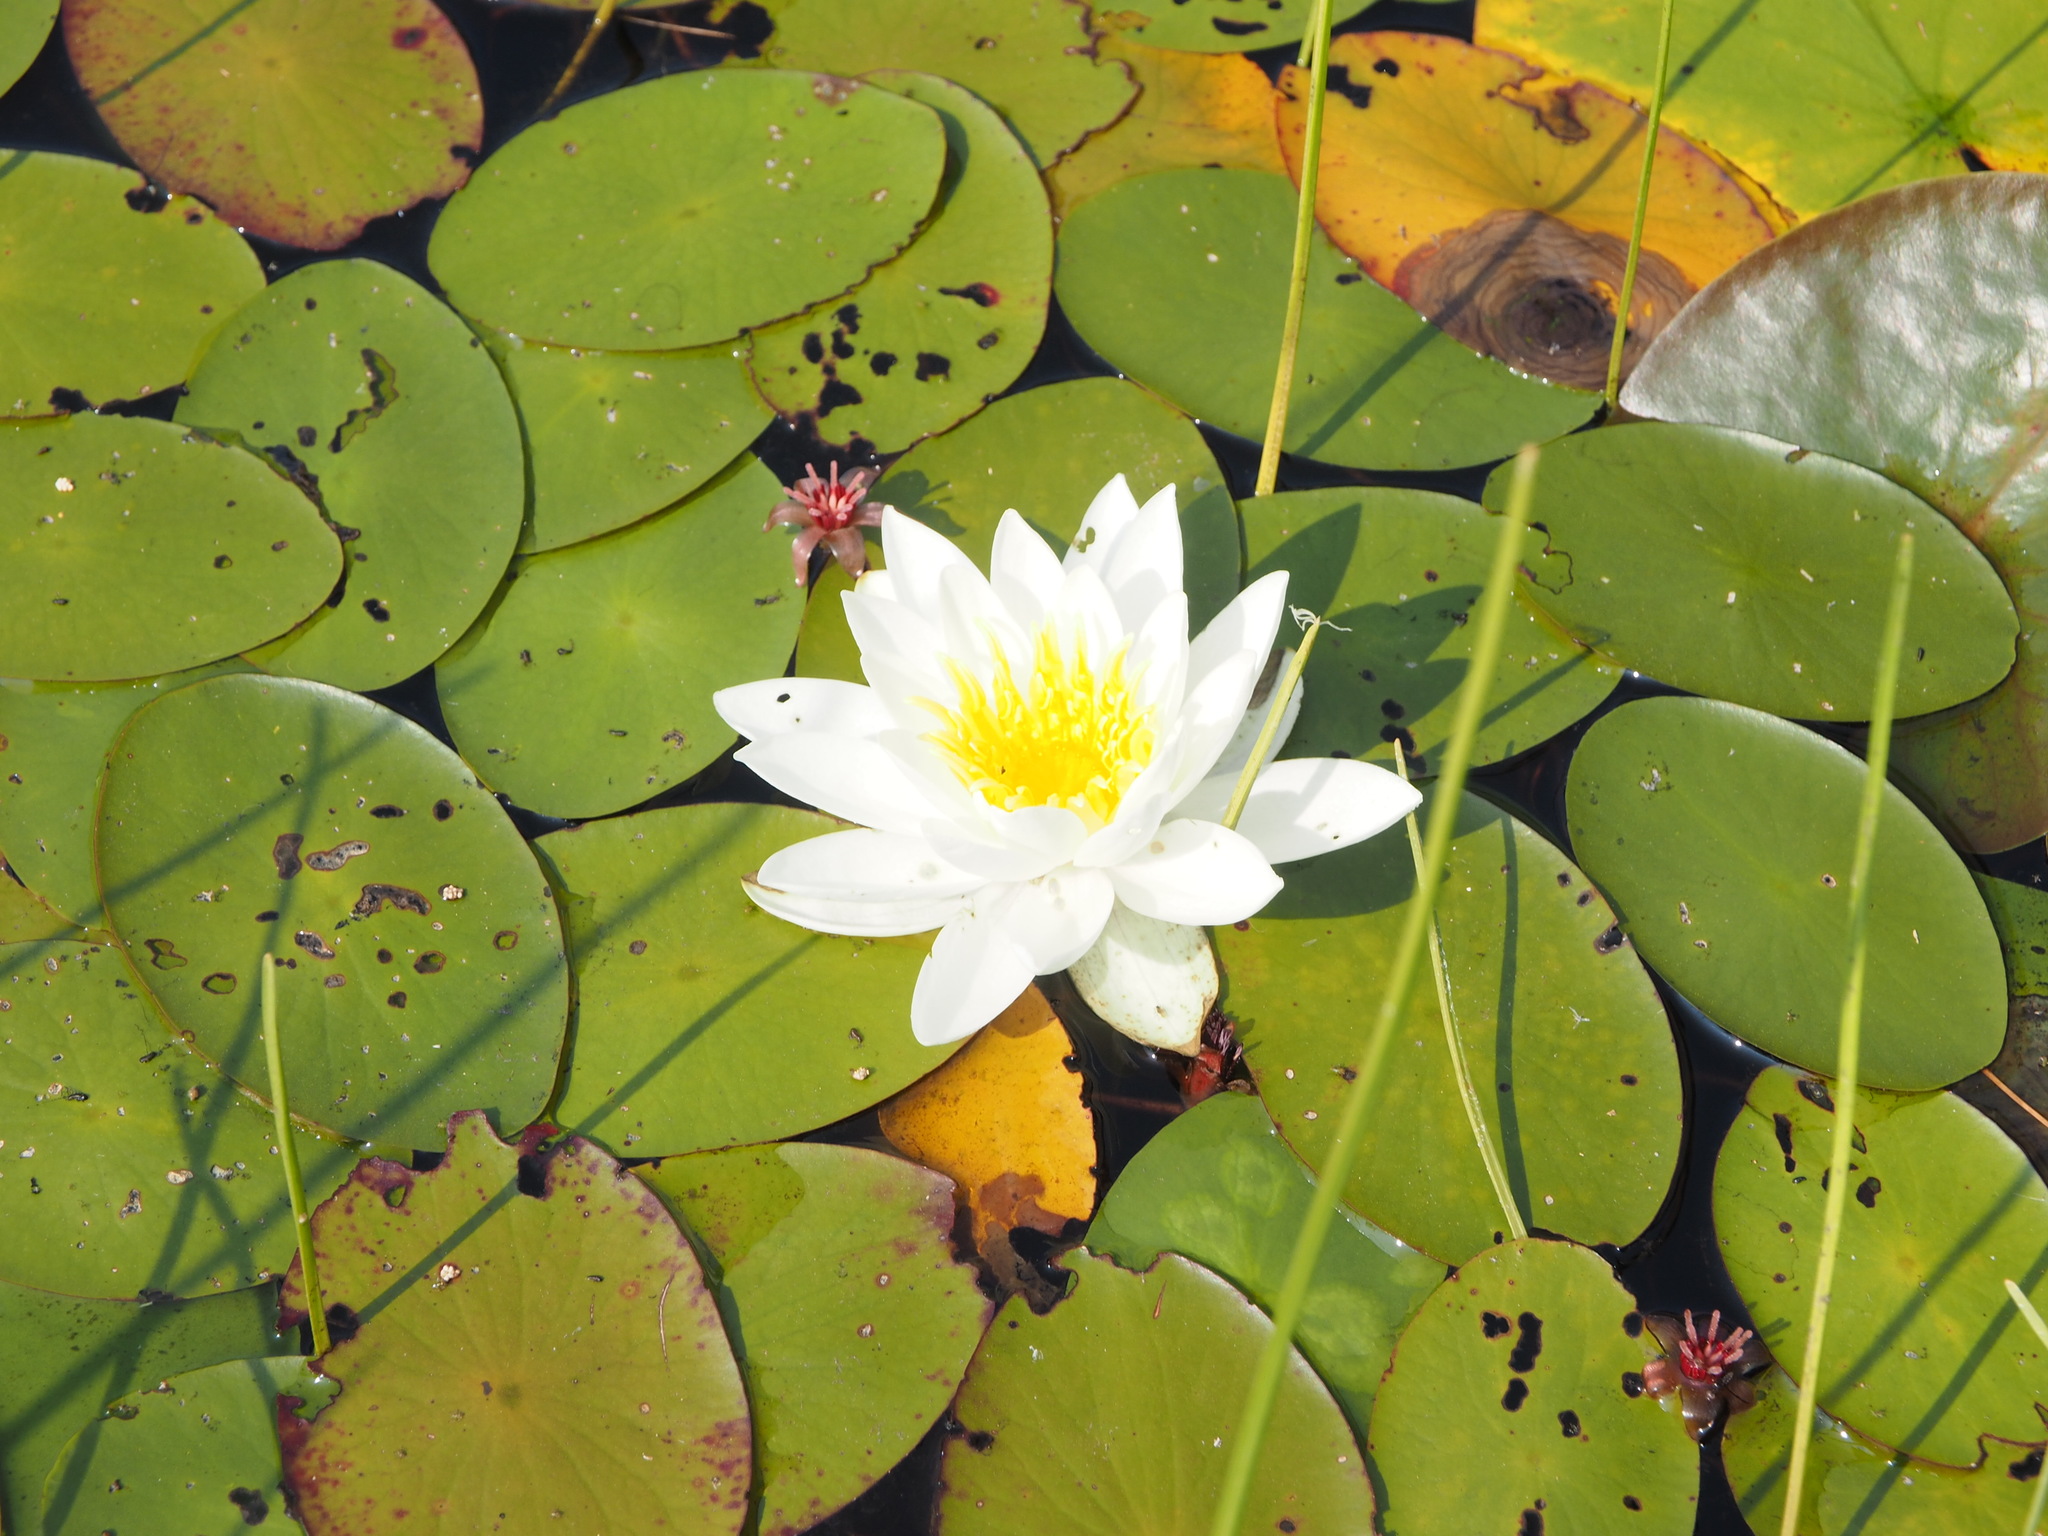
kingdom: Plantae
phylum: Tracheophyta
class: Magnoliopsida
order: Nymphaeales
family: Nymphaeaceae
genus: Nymphaea
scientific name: Nymphaea odorata
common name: Fragrant water-lily
